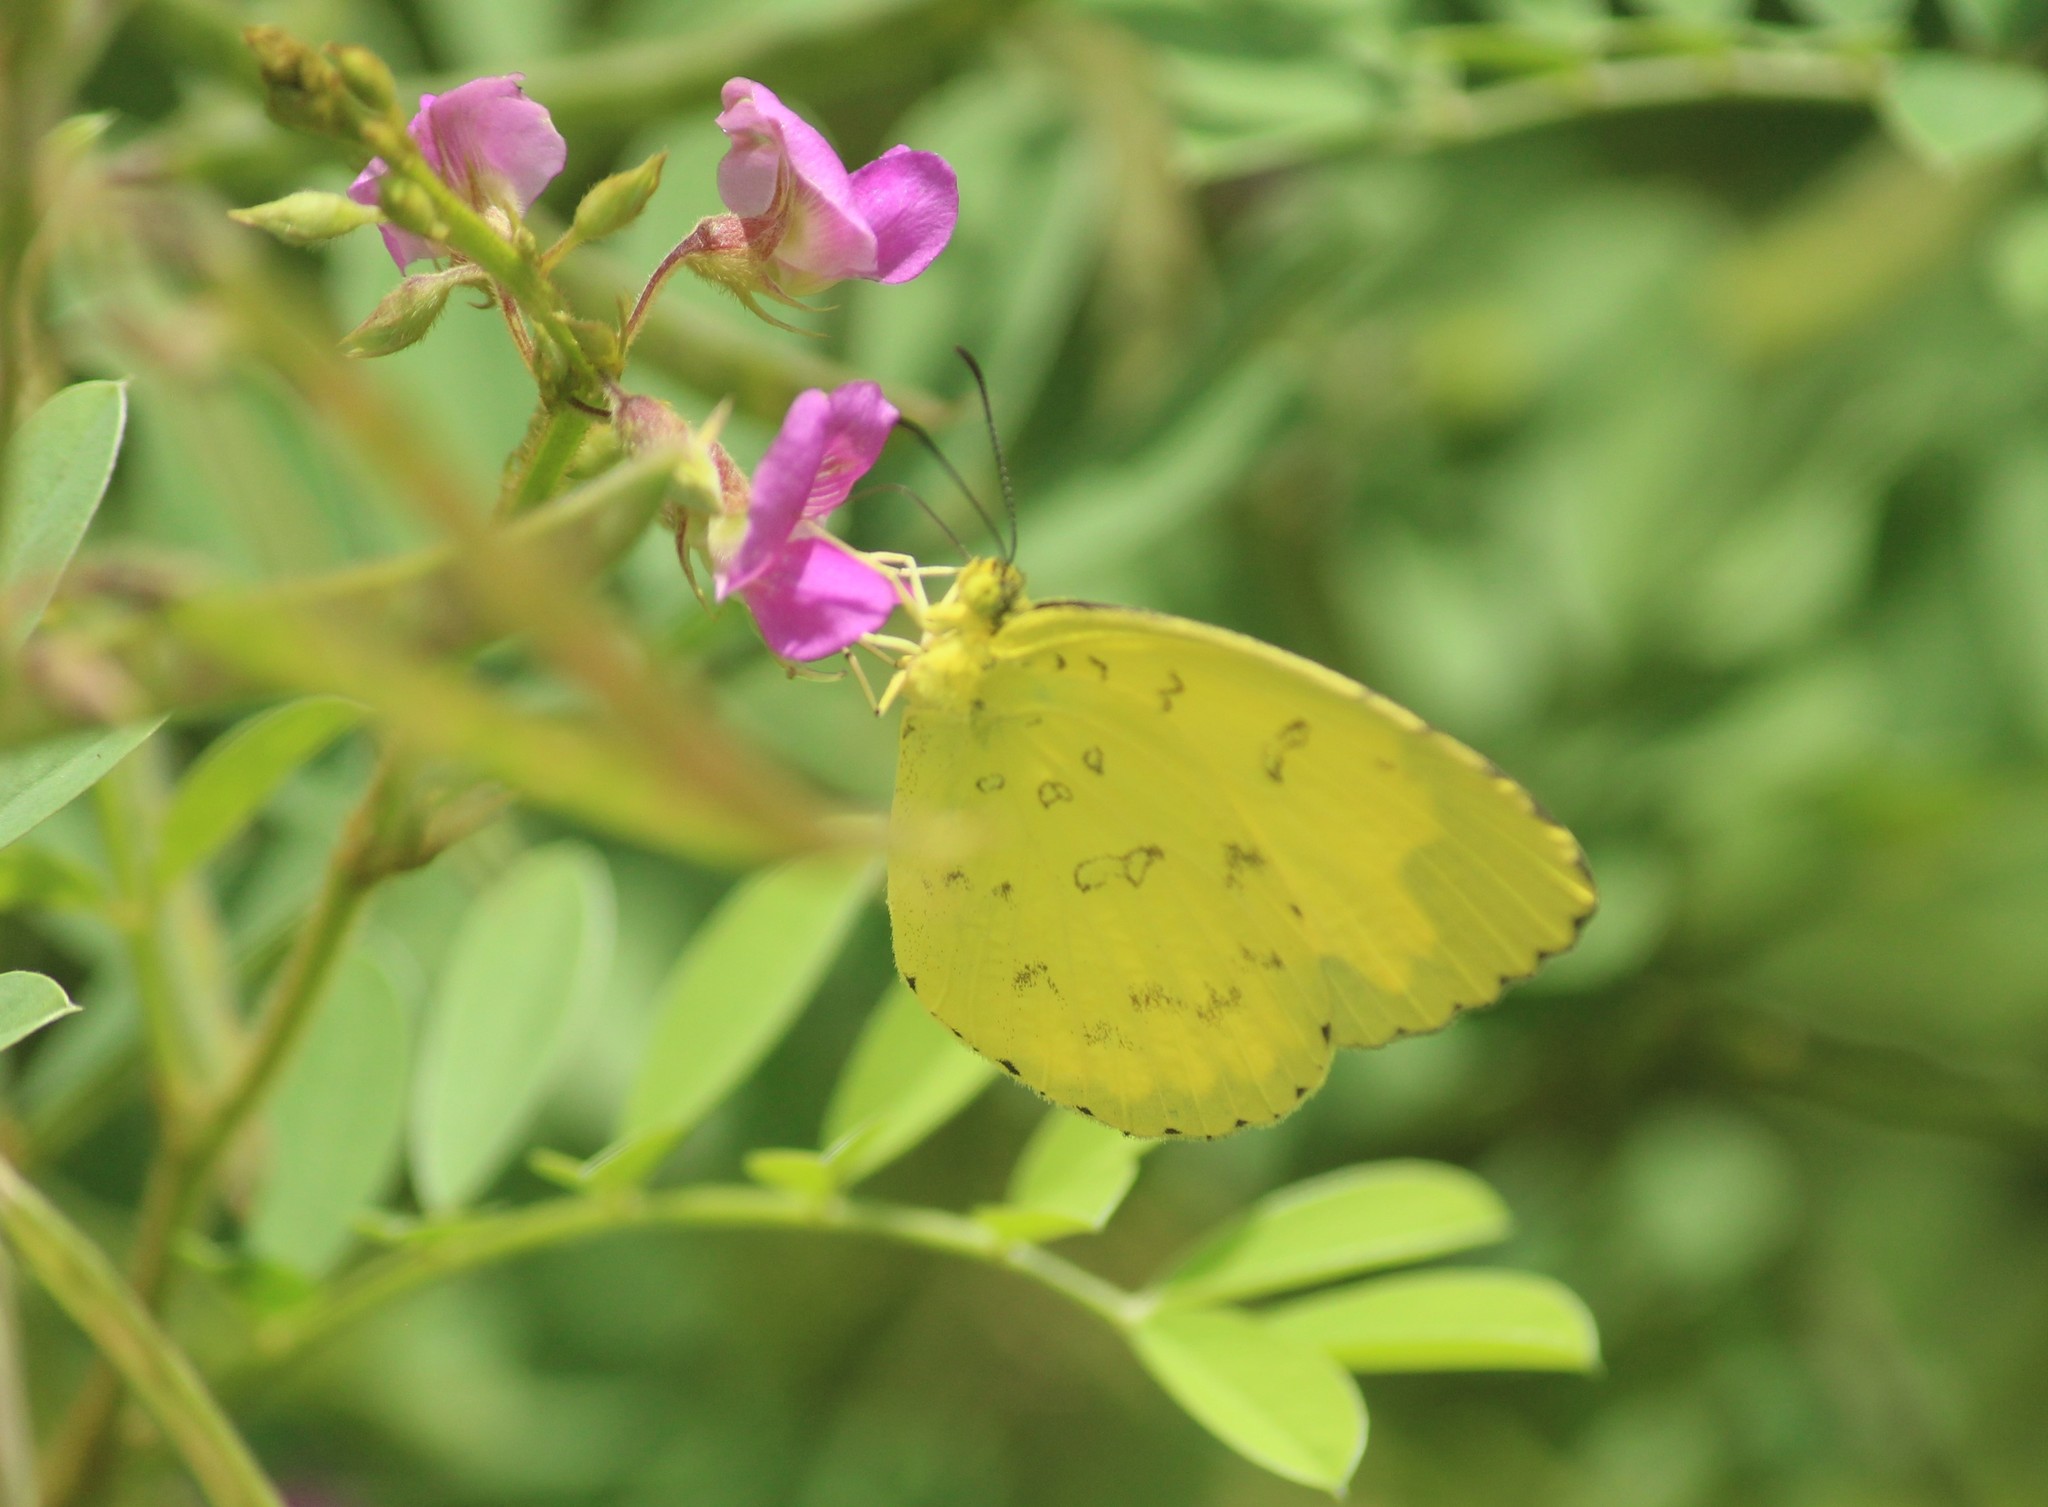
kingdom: Animalia
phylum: Arthropoda
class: Insecta
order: Lepidoptera
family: Pieridae
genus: Eurema
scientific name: Eurema blanda
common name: Three-spot grass yellow
